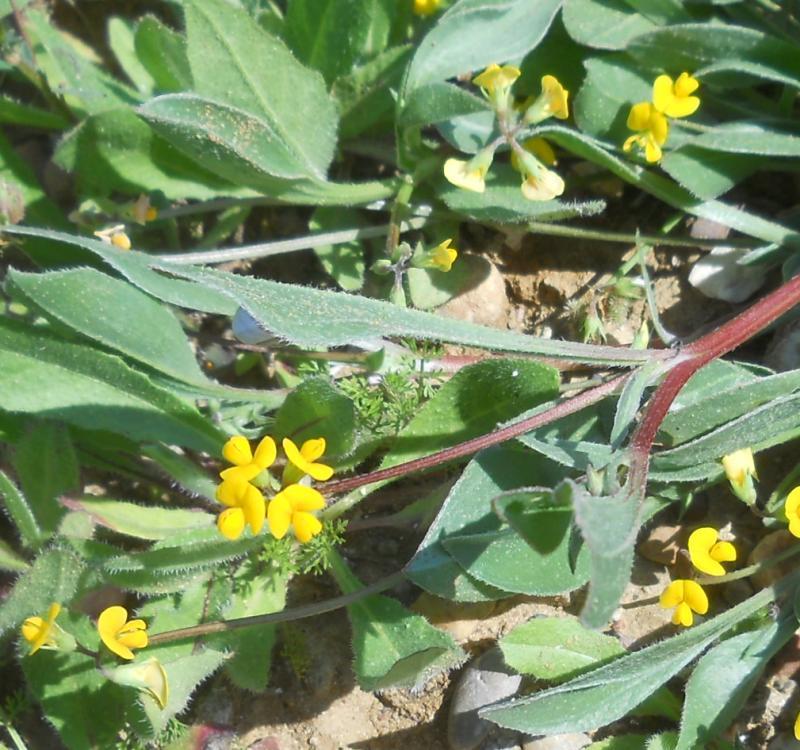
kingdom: Plantae
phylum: Tracheophyta
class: Magnoliopsida
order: Fabales
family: Fabaceae
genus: Scorpiurus
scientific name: Scorpiurus muricatus
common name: Caterpillar-plant
